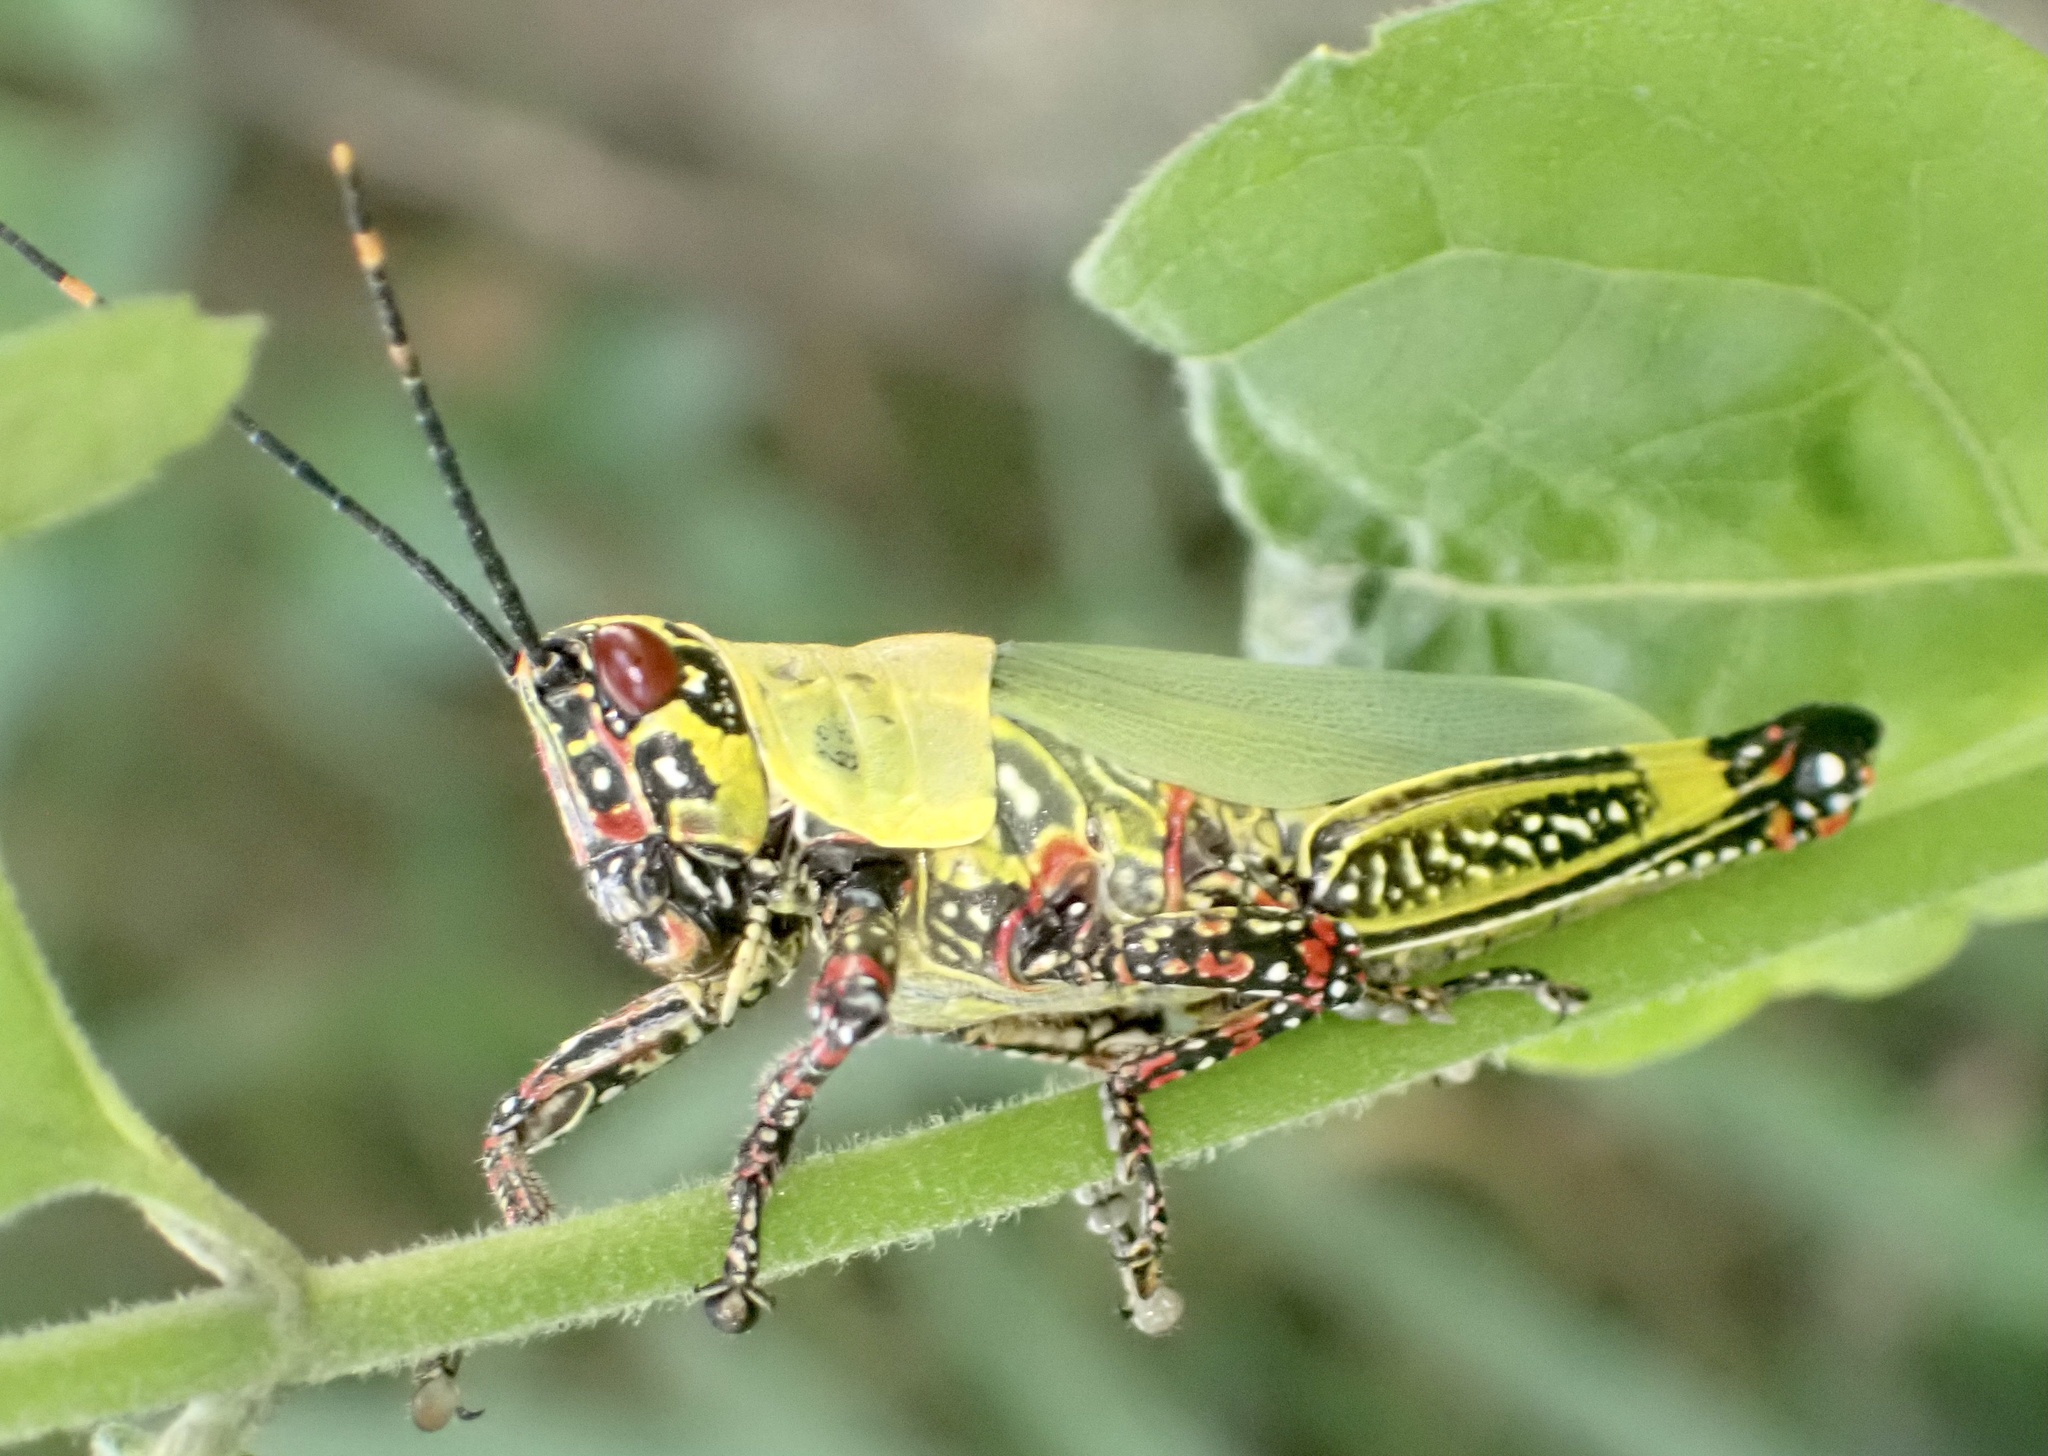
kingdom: Animalia
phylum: Arthropoda
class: Insecta
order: Orthoptera
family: Pyrgomorphidae
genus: Zonocerus
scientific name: Zonocerus variegatus
